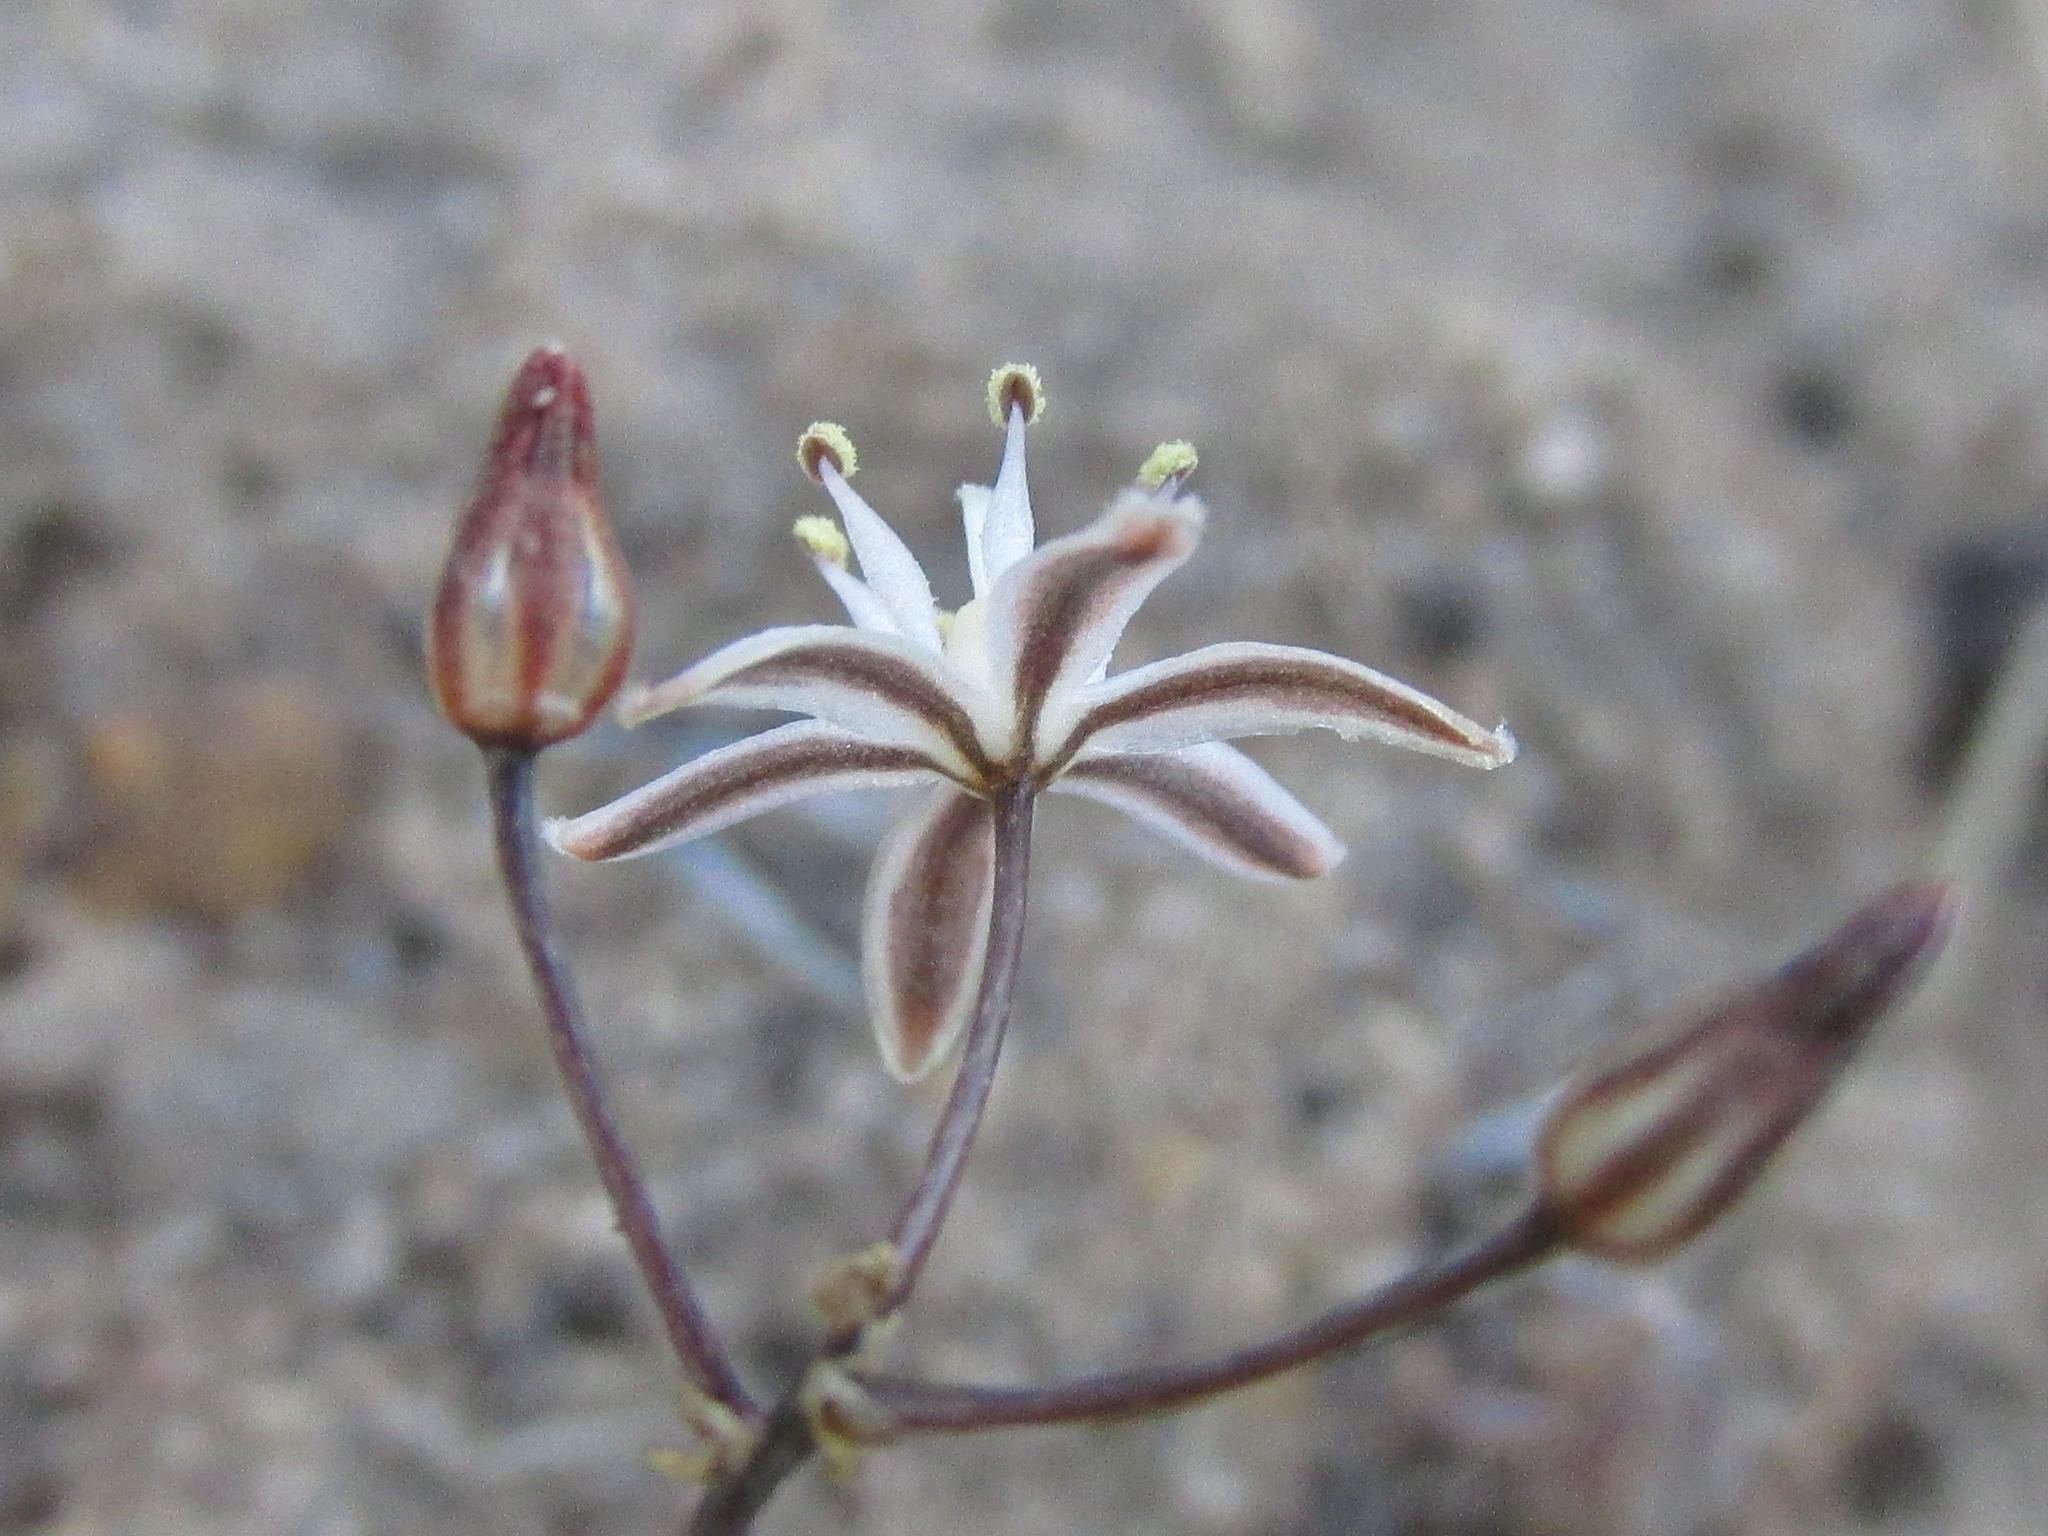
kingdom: Plantae
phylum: Tracheophyta
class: Liliopsida
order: Asparagales
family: Asparagaceae
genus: Fusifilum
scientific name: Fusifilum physodes
